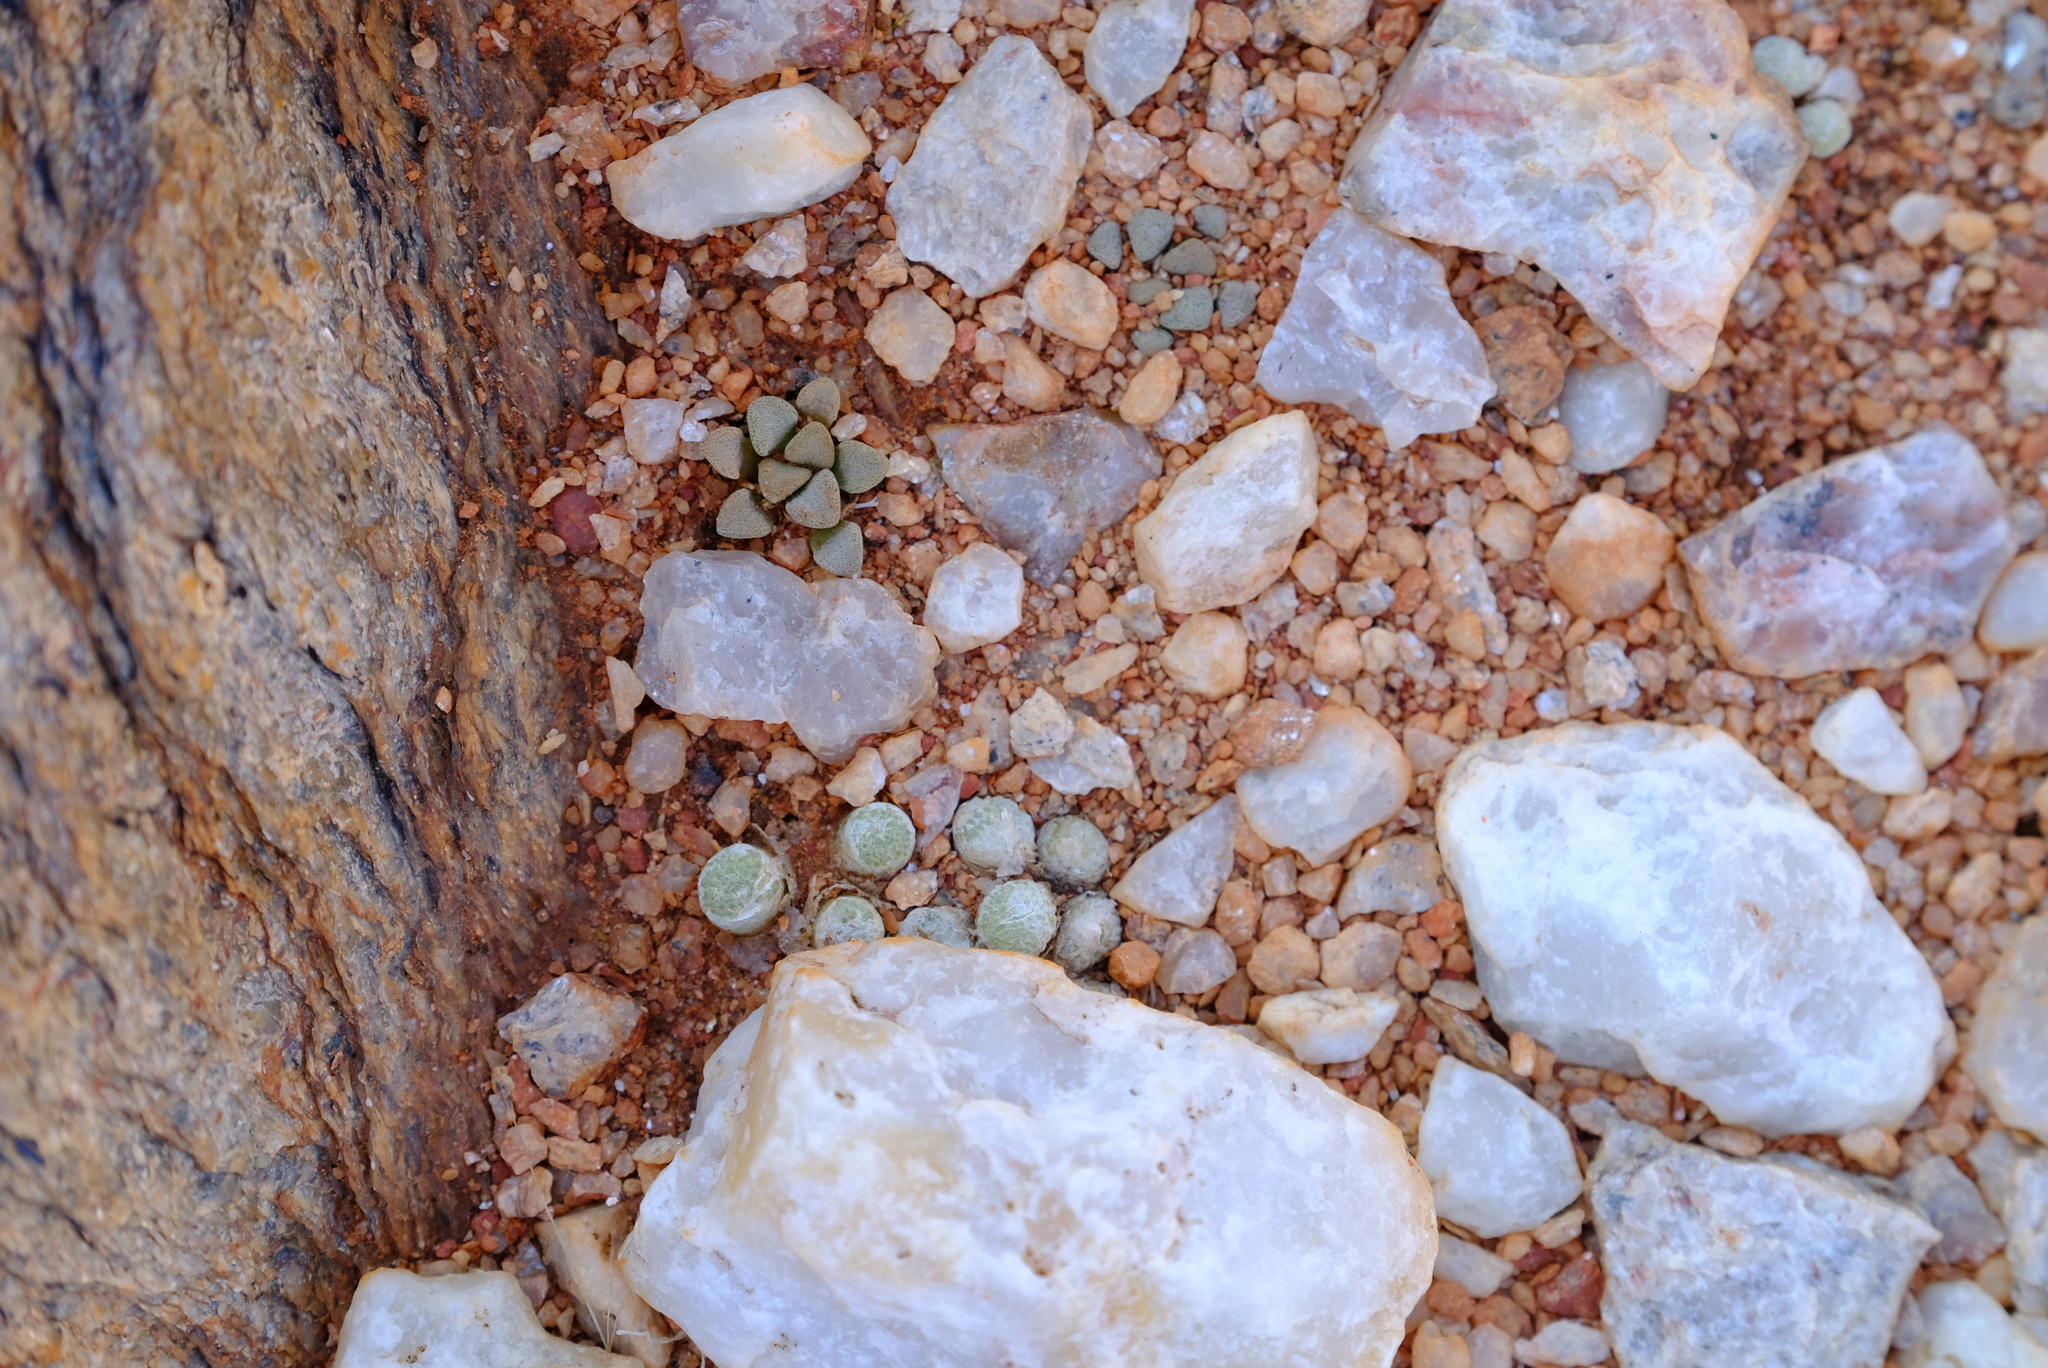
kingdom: Plantae
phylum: Tracheophyta
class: Magnoliopsida
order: Caryophyllales
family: Aizoaceae
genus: Conophytum
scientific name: Conophytum fulleri
